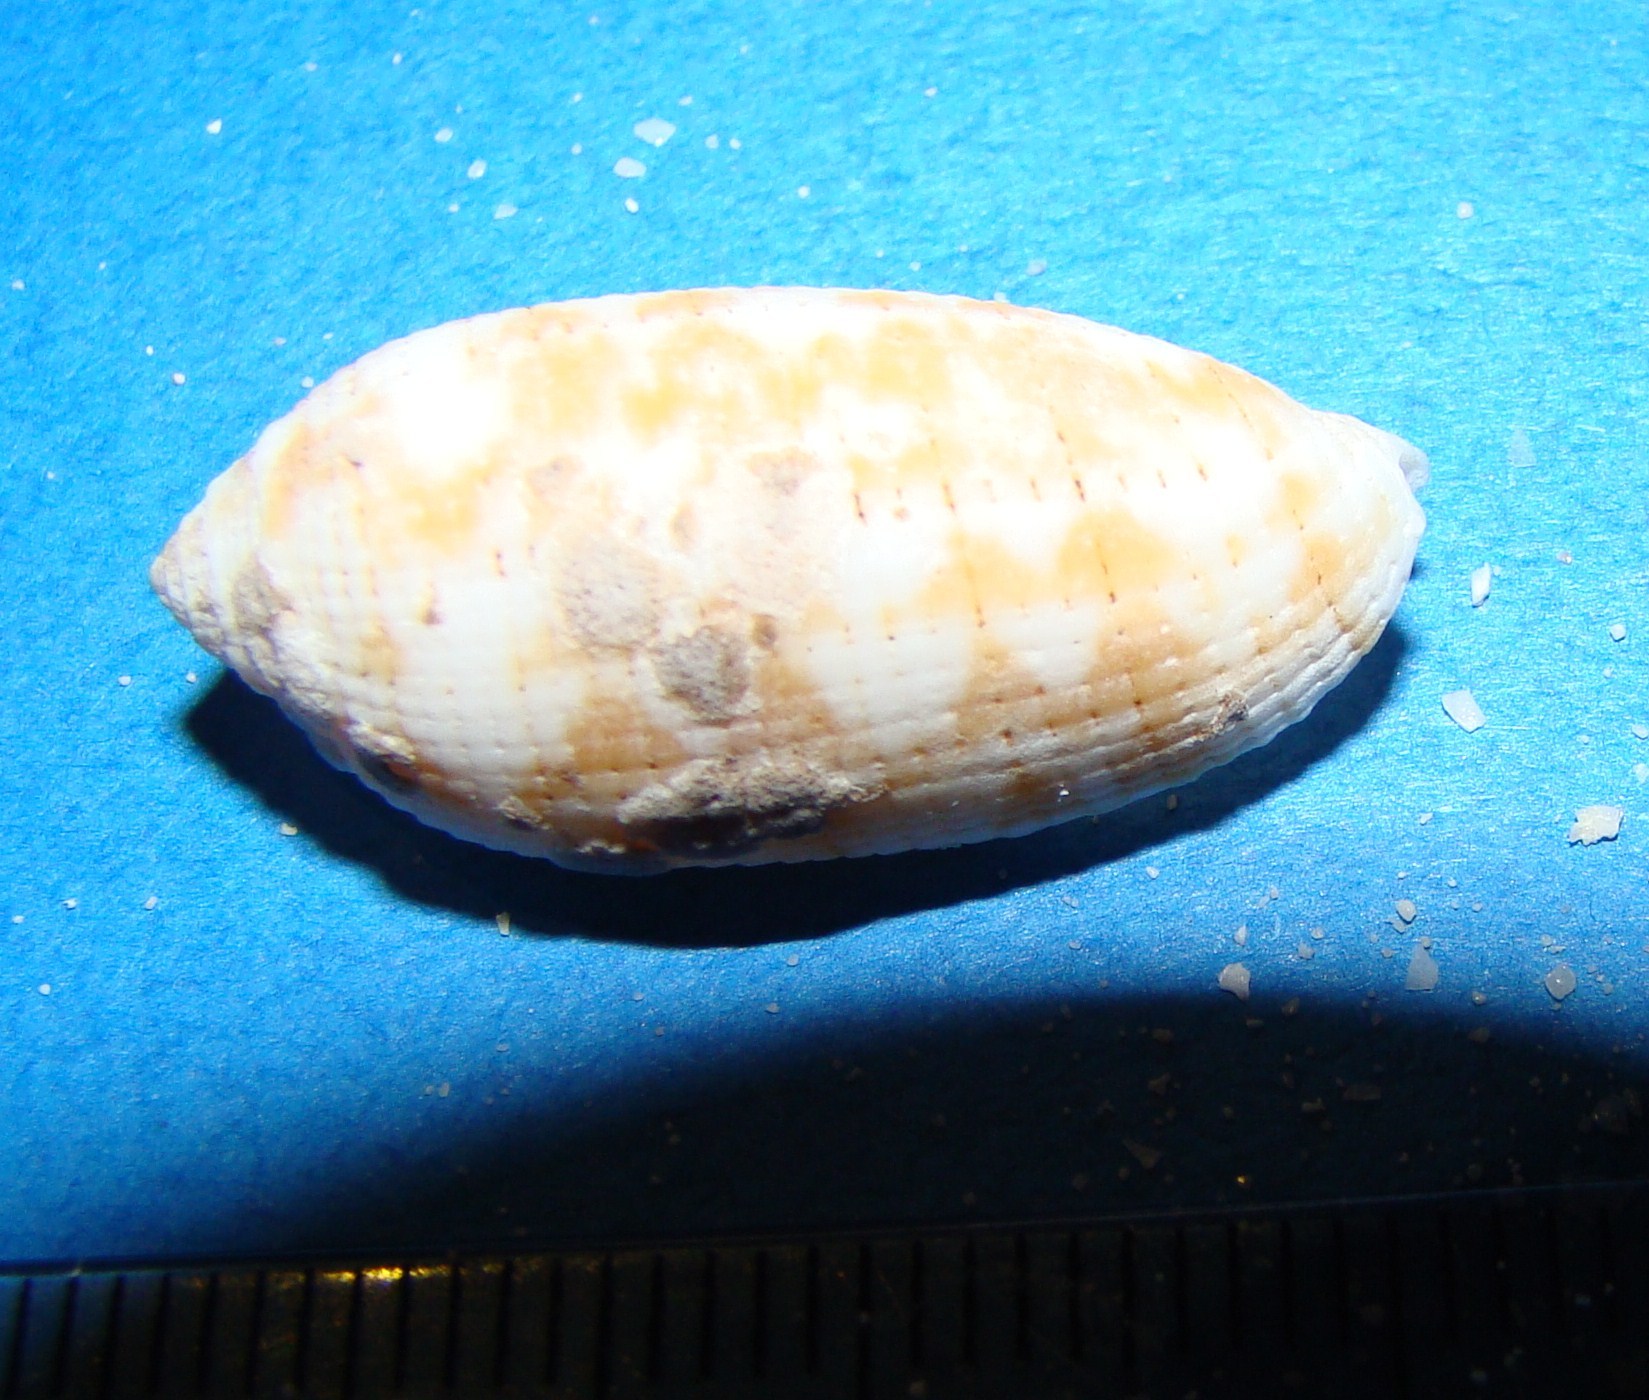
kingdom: Animalia
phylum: Mollusca
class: Gastropoda
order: Neogastropoda
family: Mitridae
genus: Pterygia
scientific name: Pterygia crenulata
